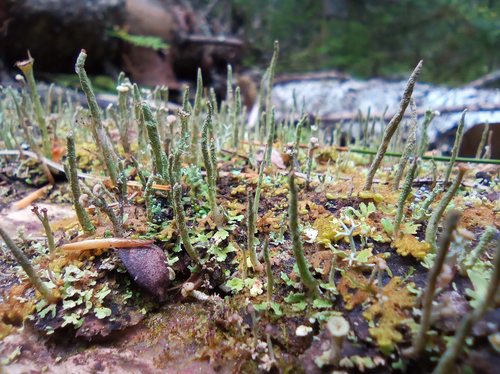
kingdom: Fungi
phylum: Ascomycota
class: Lecanoromycetes
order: Lecanorales
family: Cladoniaceae
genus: Cladonia
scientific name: Cladonia ochrochlora
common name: Smooth-footed powderhorn
